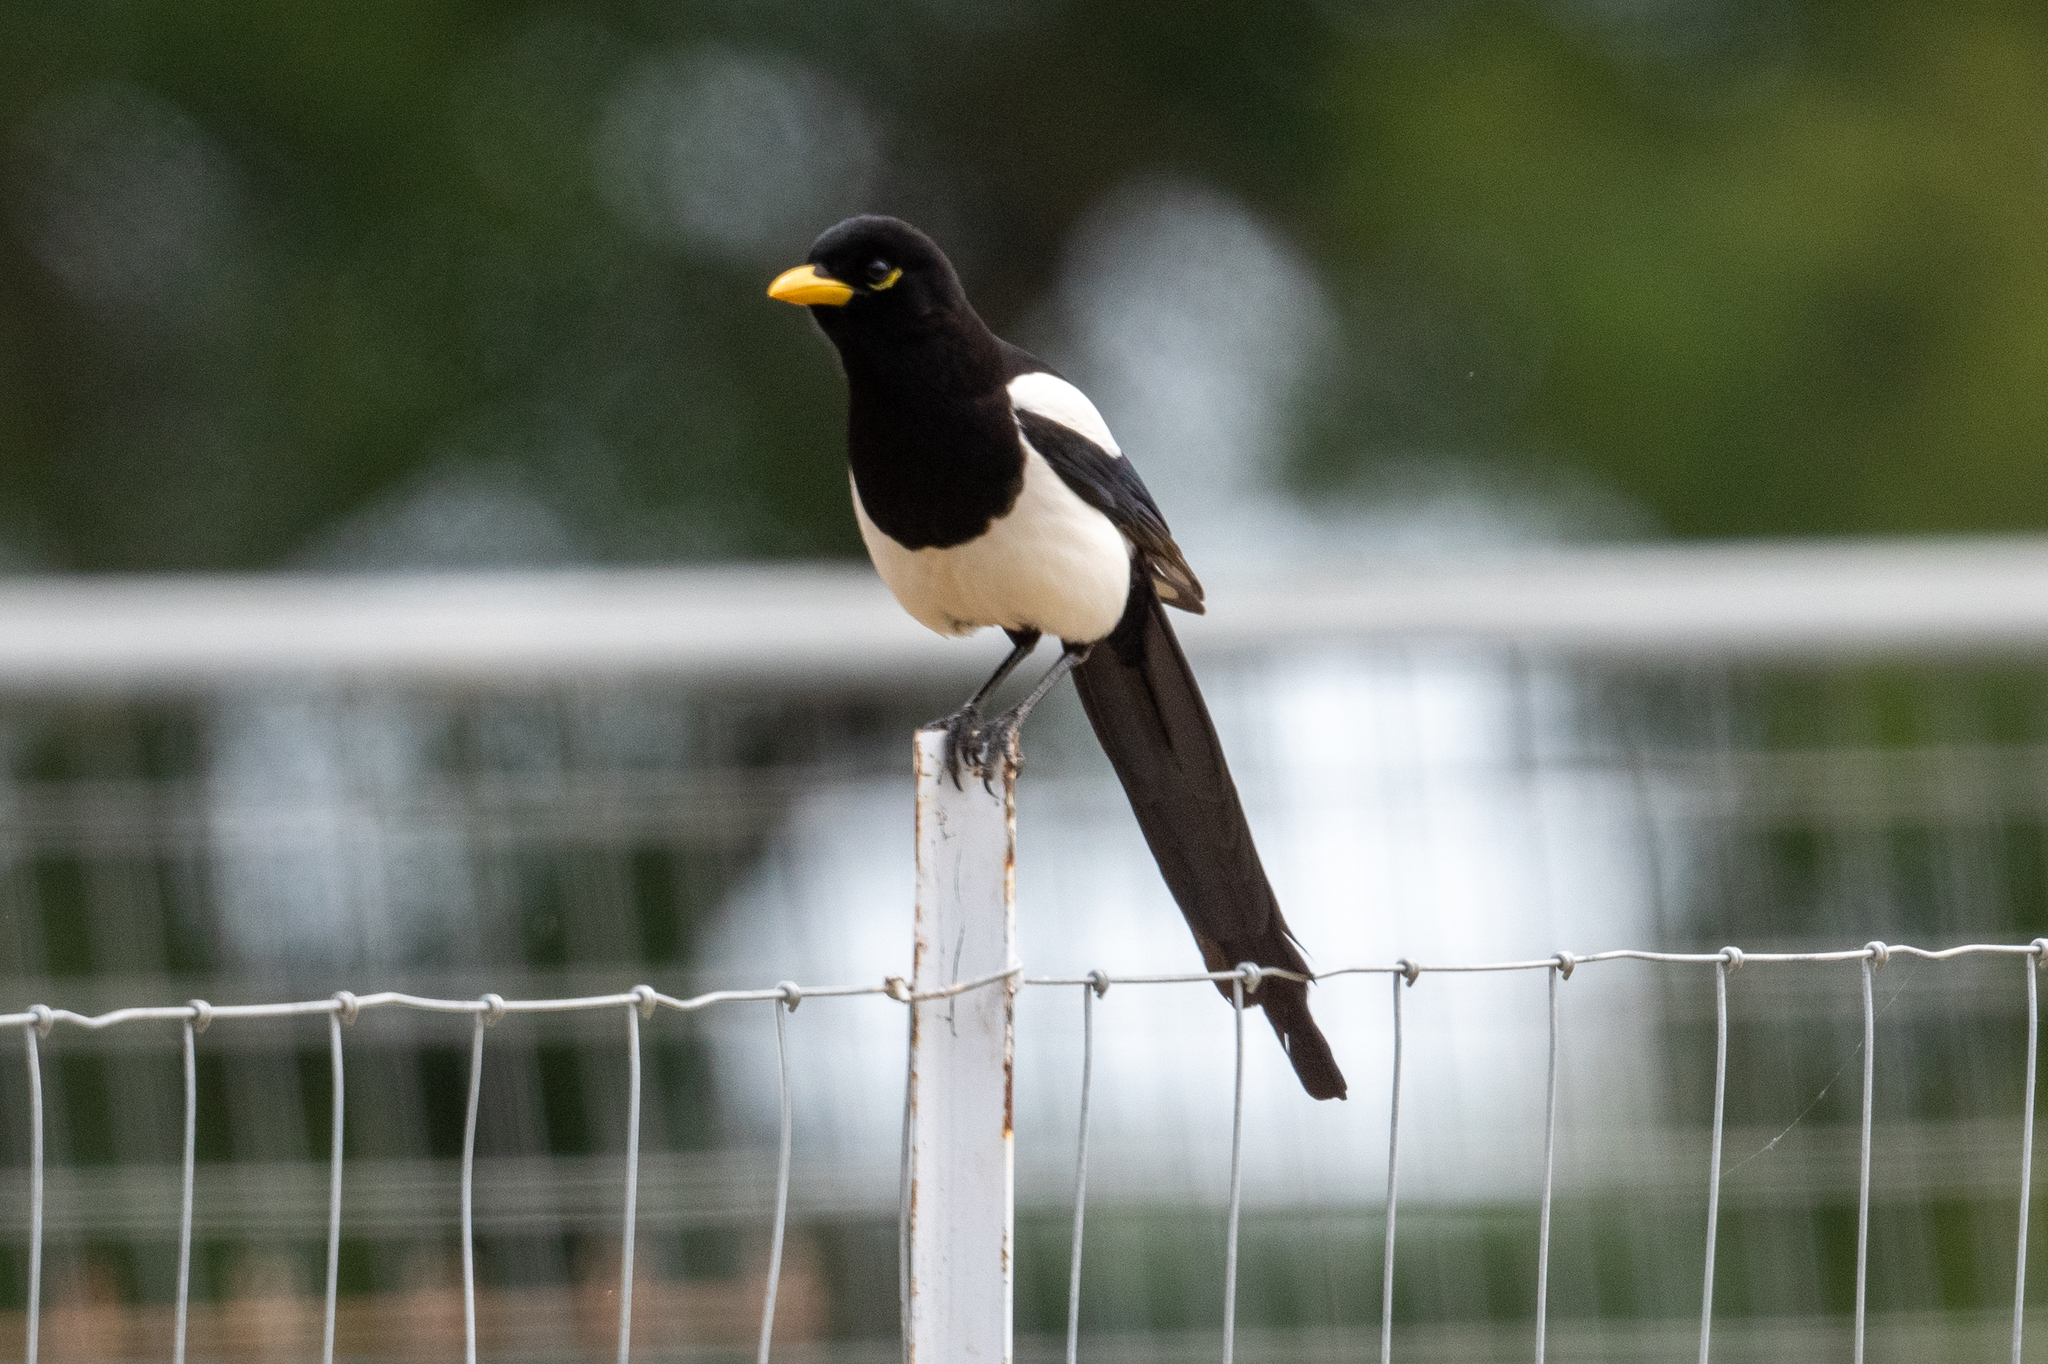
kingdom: Animalia
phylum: Chordata
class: Aves
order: Passeriformes
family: Corvidae
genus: Pica
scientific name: Pica nuttalli
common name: Yellow-billed magpie
